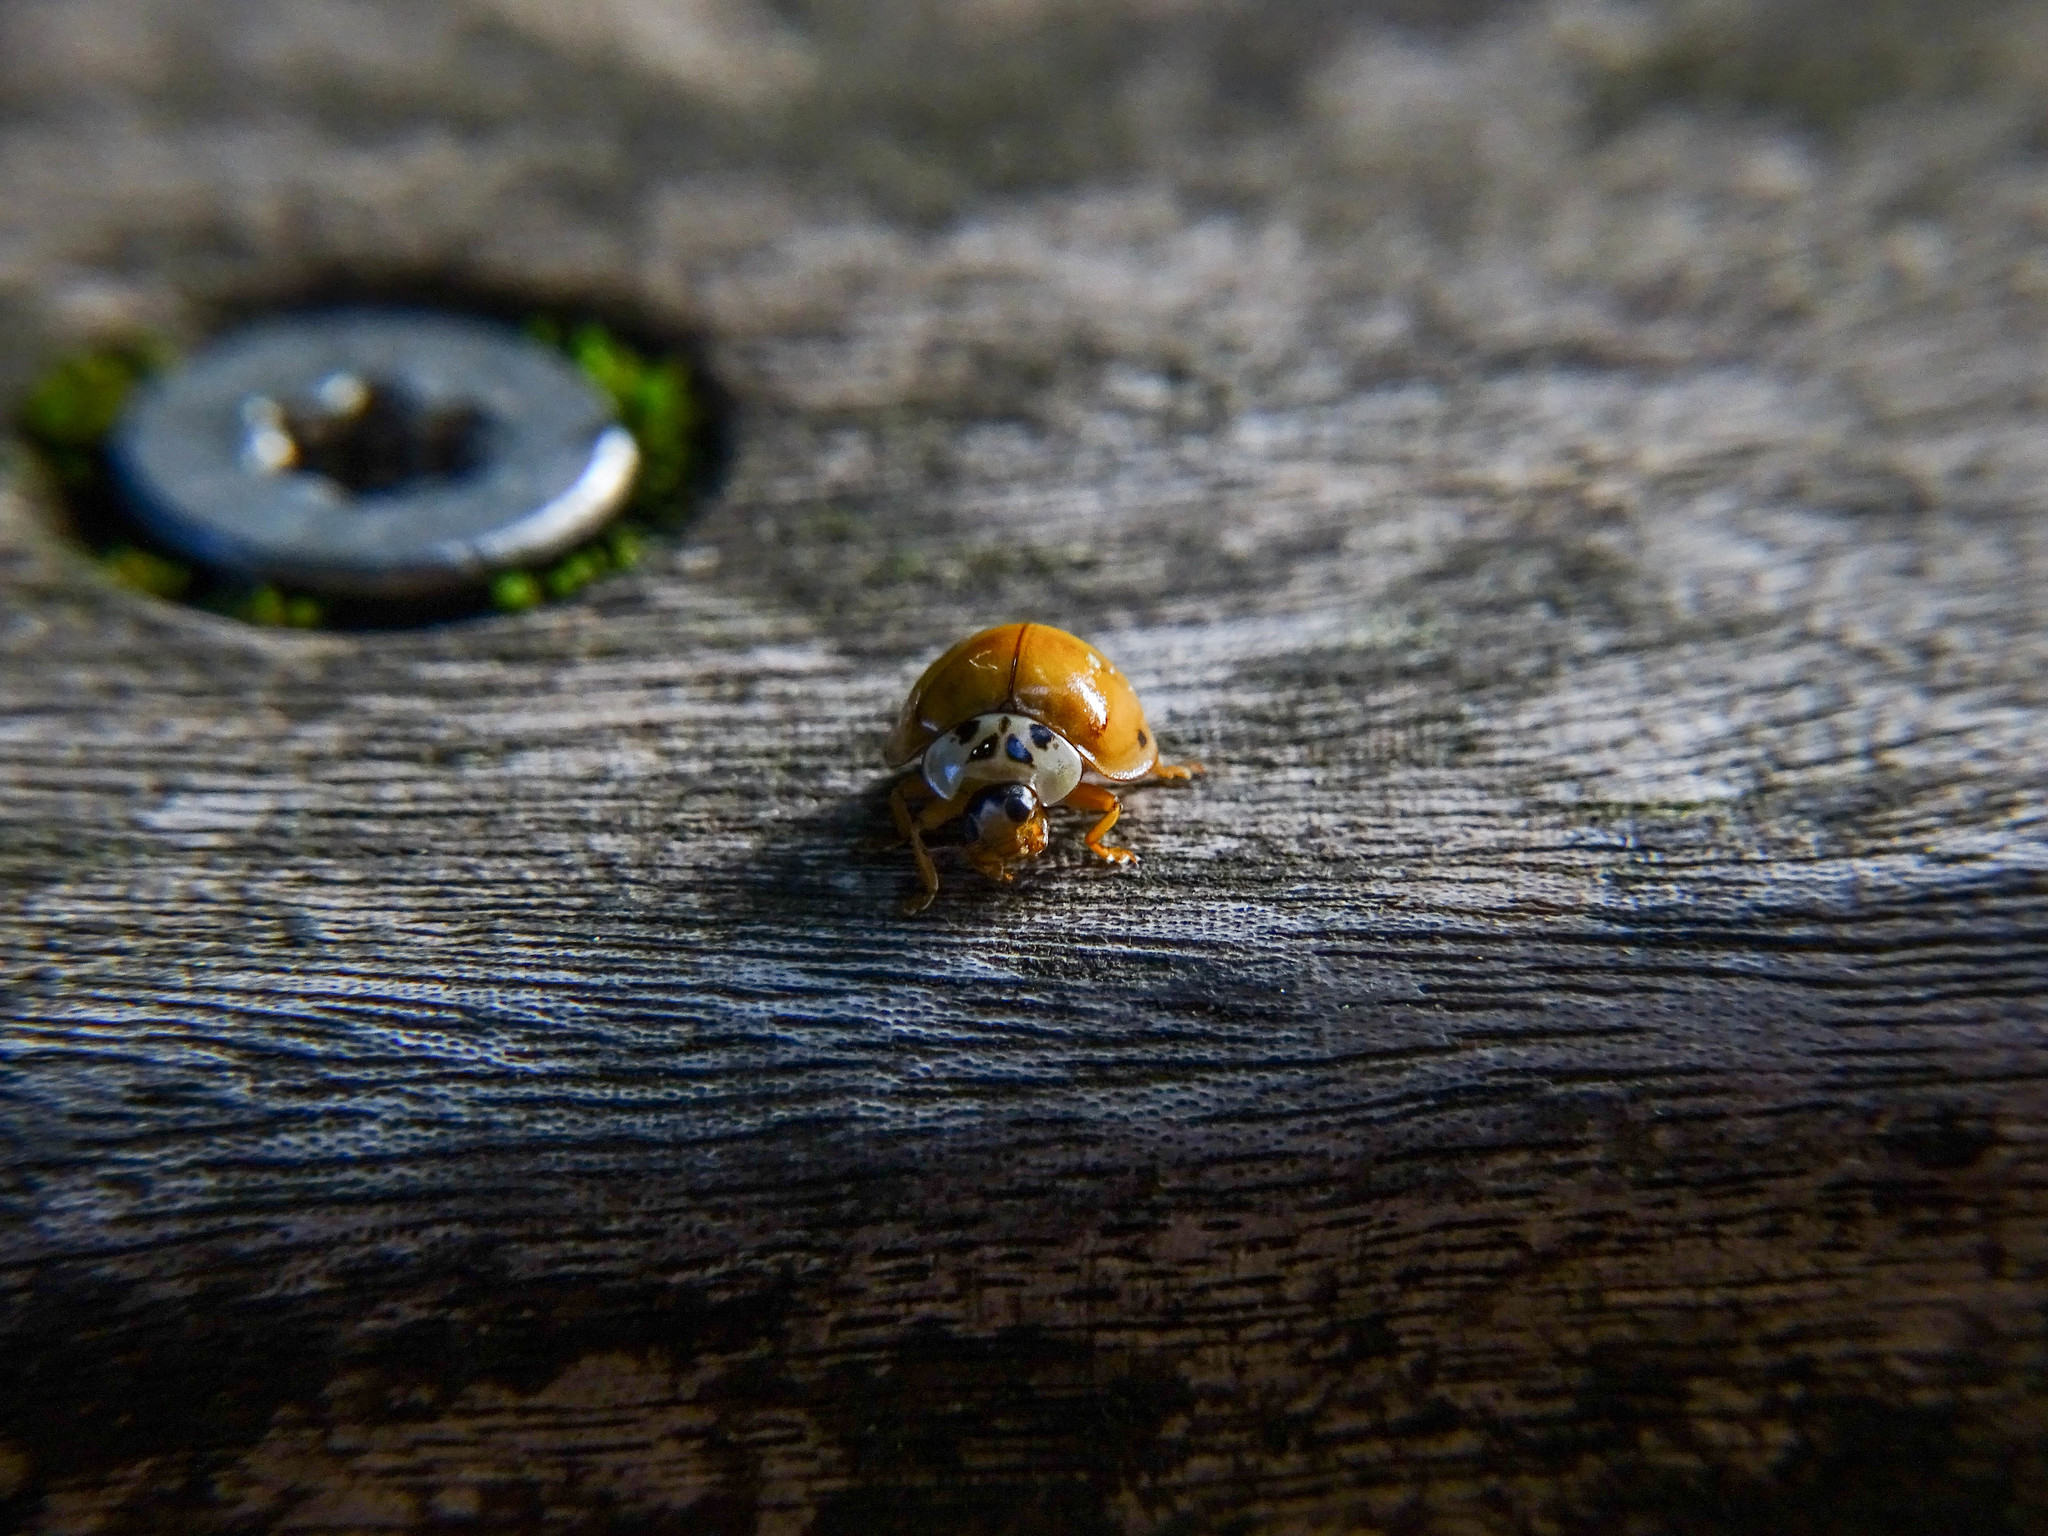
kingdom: Animalia
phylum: Arthropoda
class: Insecta
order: Coleoptera
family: Coccinellidae
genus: Harmonia
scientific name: Harmonia axyridis
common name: Harlequin ladybird
